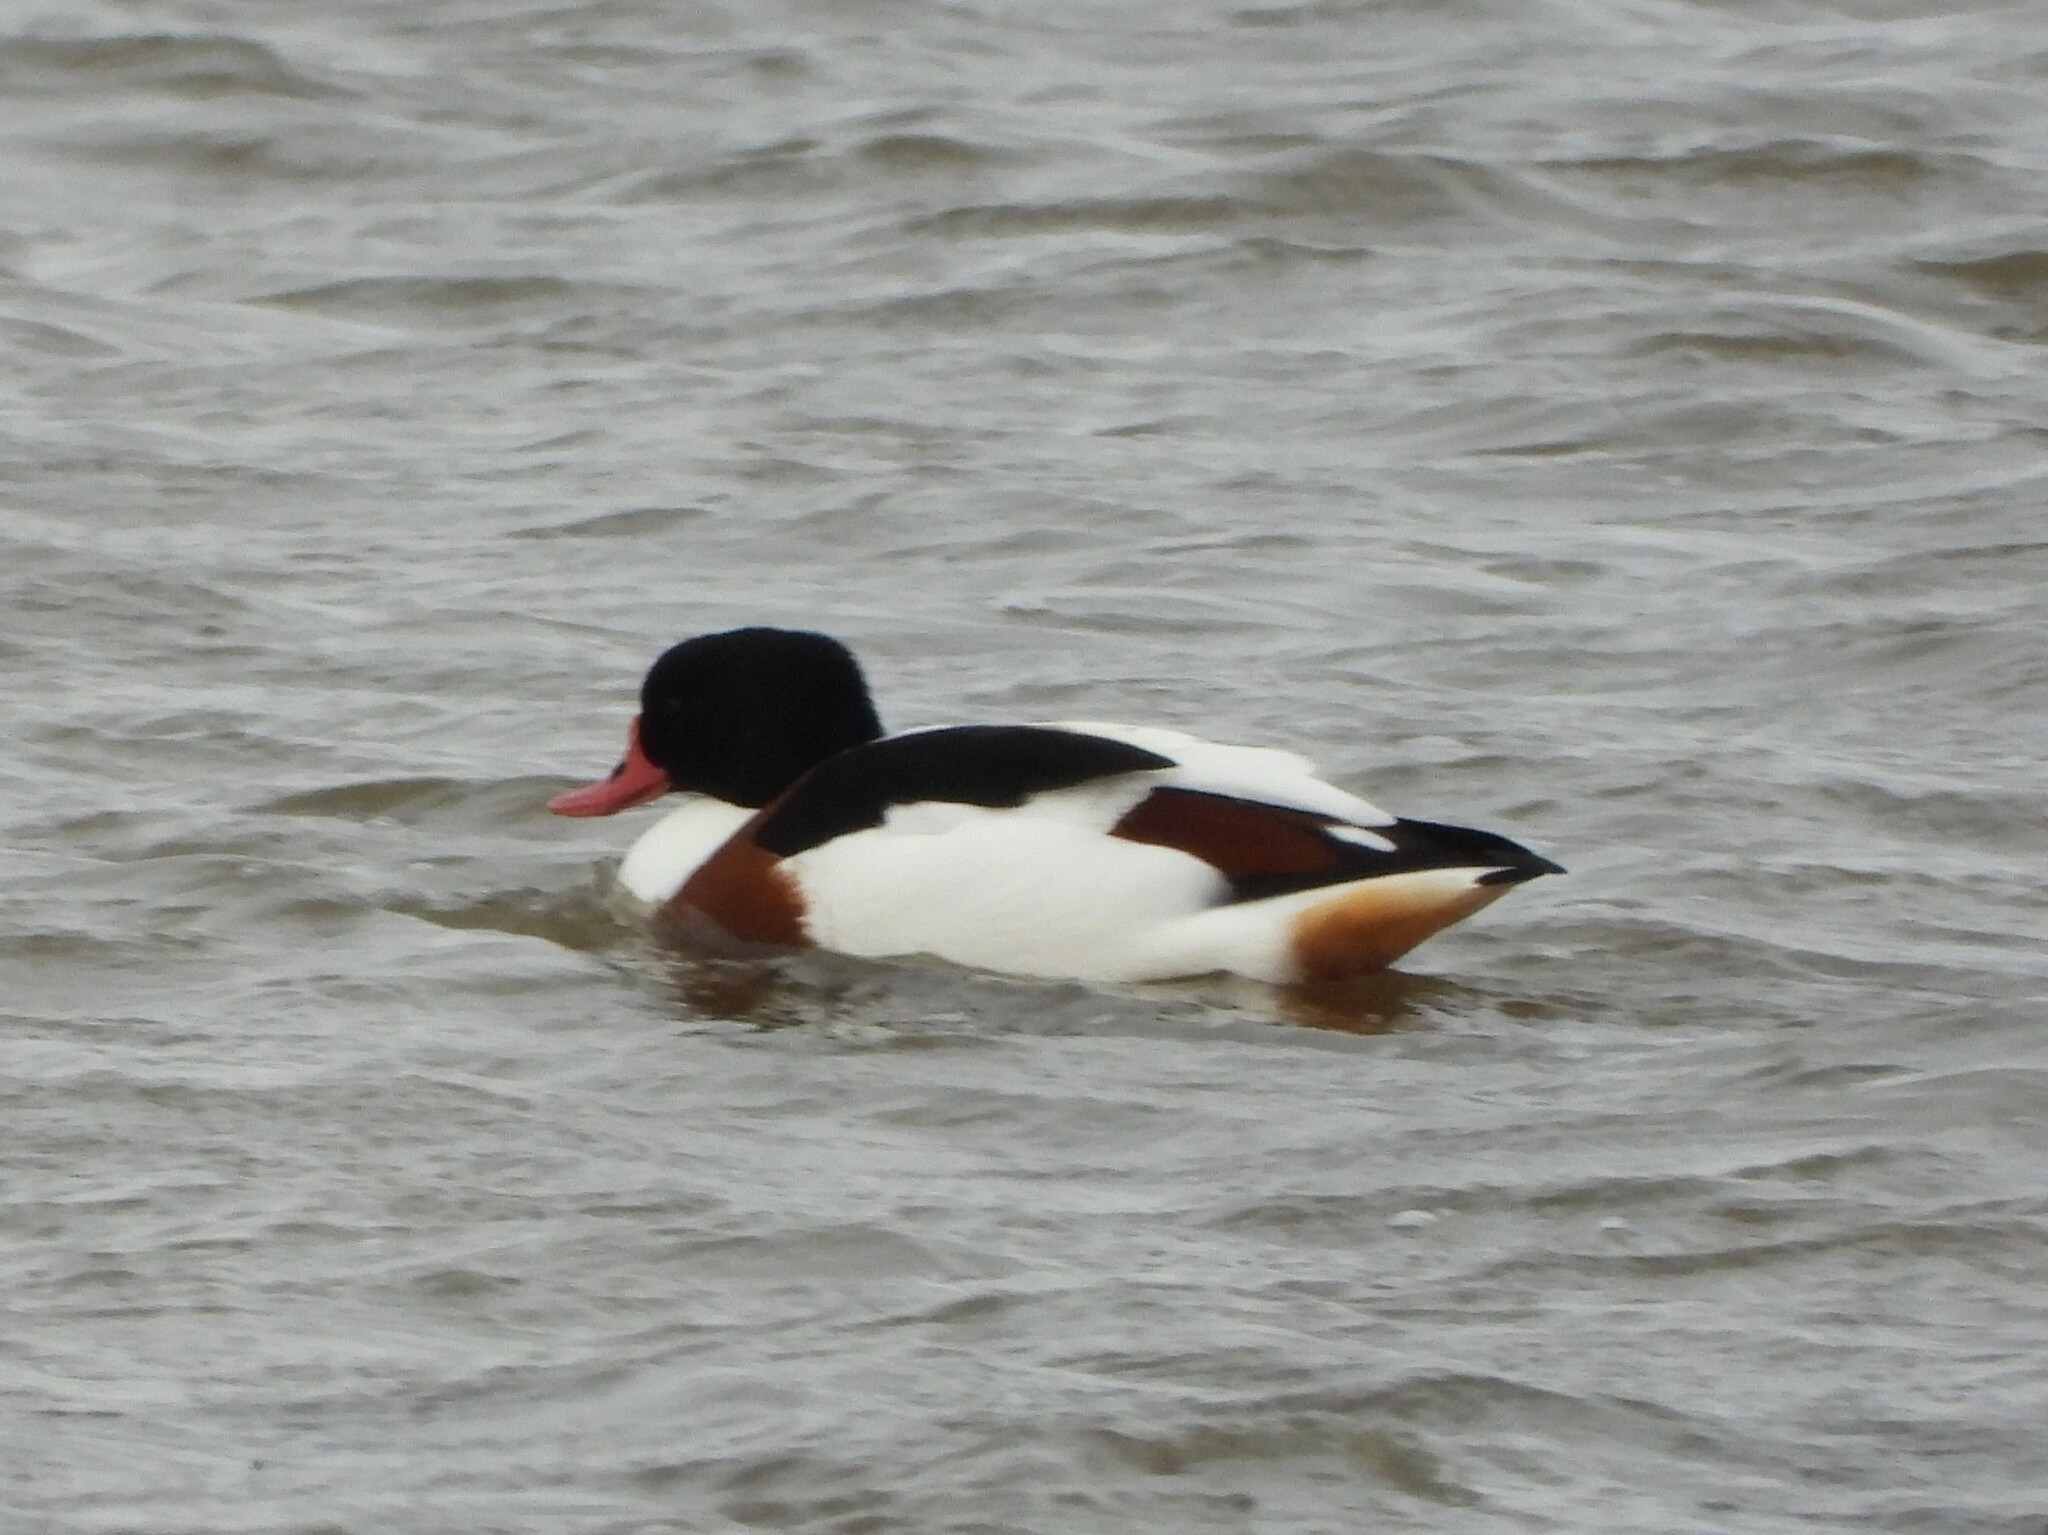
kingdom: Animalia
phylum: Chordata
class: Aves
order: Anseriformes
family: Anatidae
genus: Tadorna
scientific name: Tadorna tadorna
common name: Common shelduck
